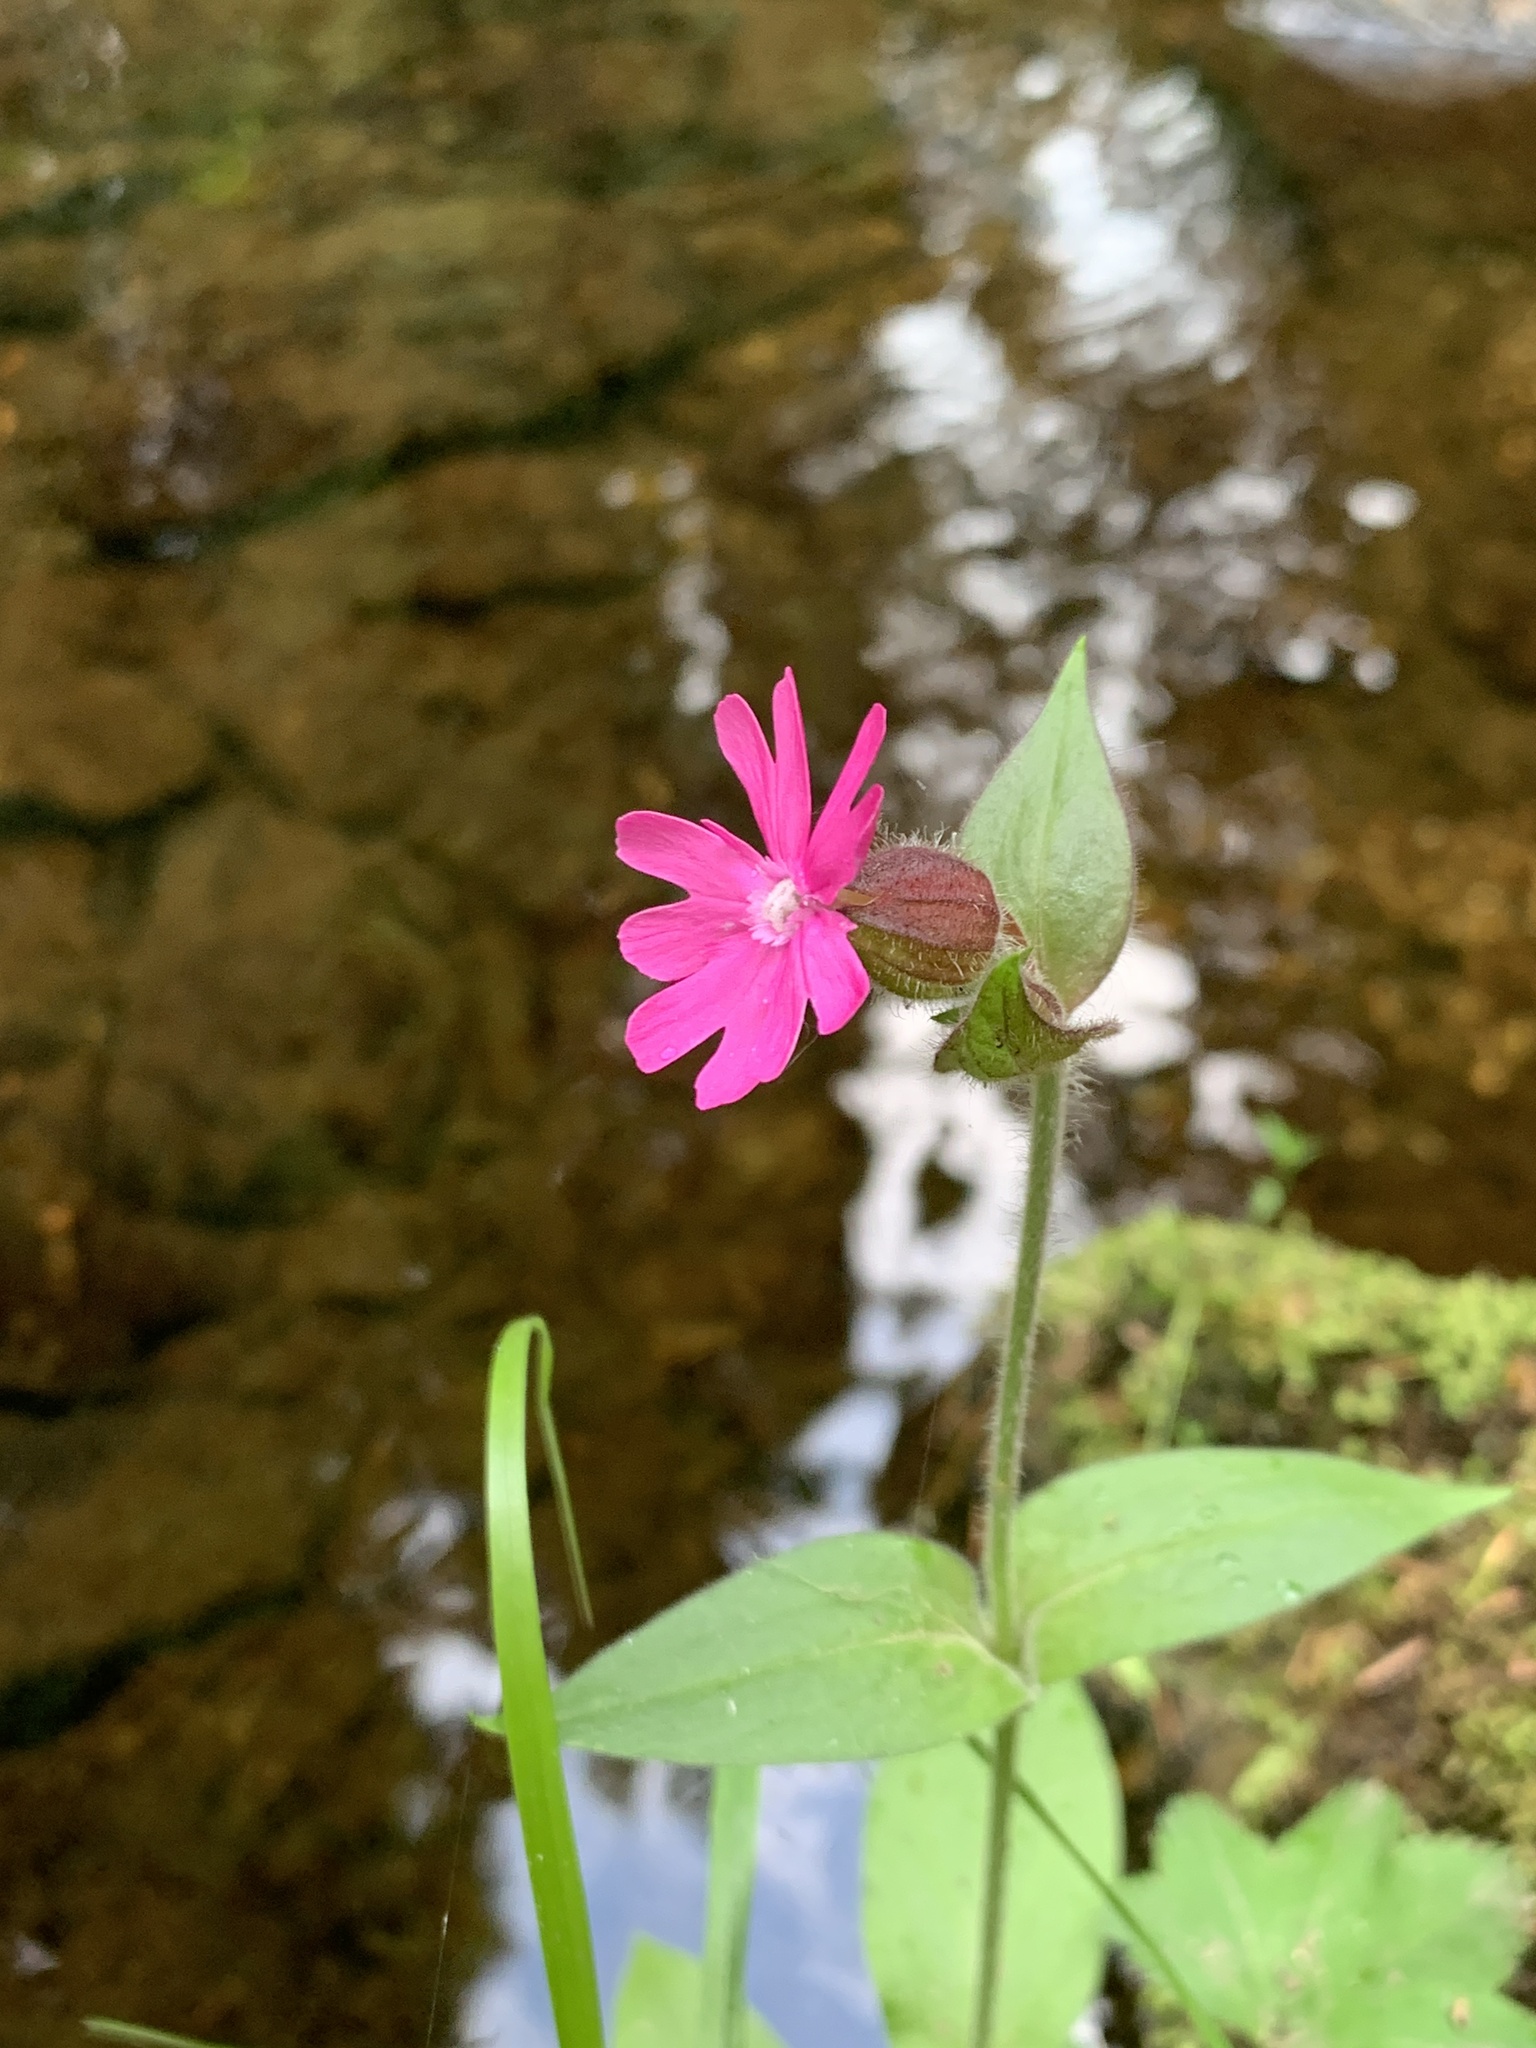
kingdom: Plantae
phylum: Tracheophyta
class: Magnoliopsida
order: Caryophyllales
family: Caryophyllaceae
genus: Silene
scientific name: Silene dioica
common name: Red campion
